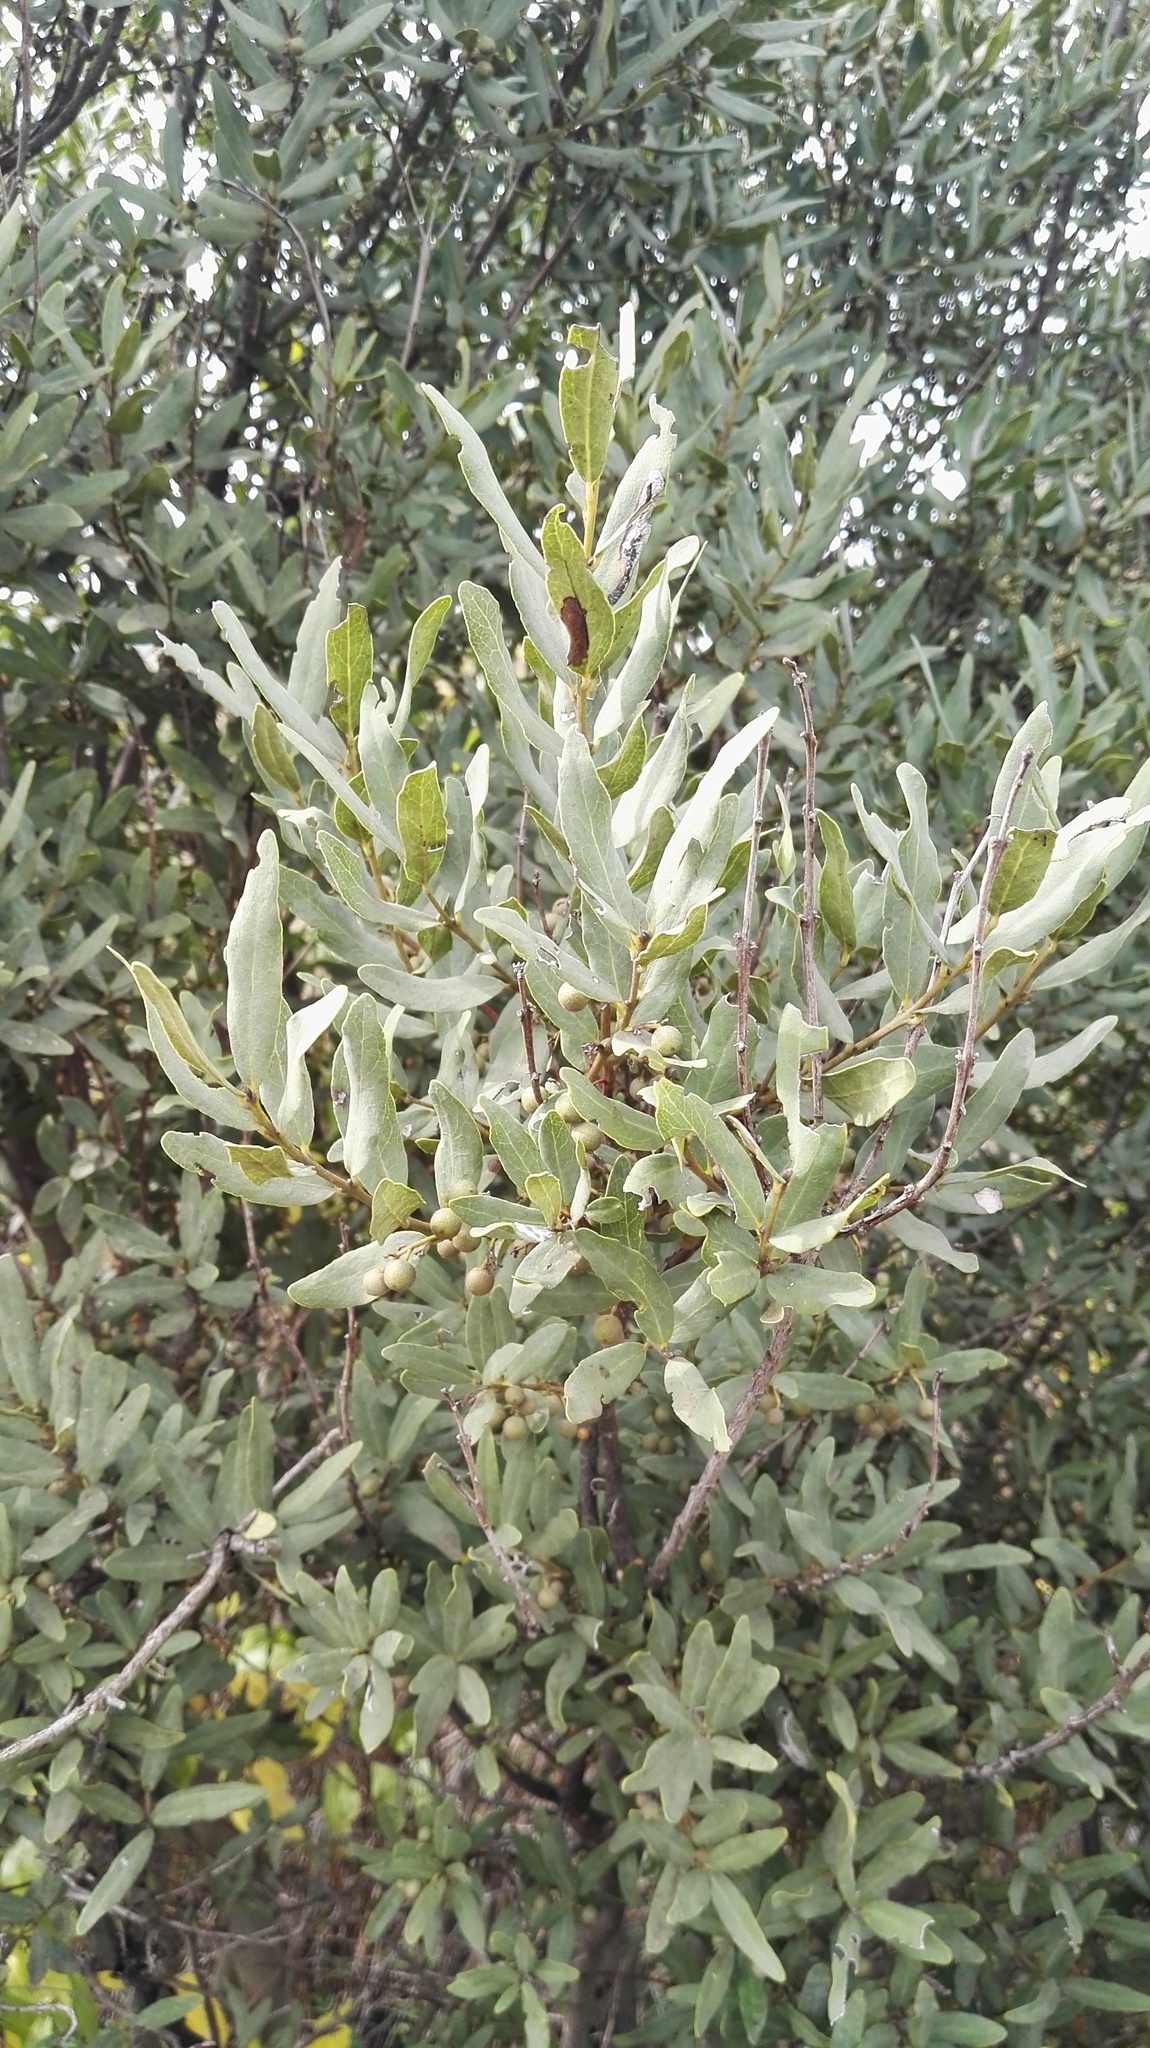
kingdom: Plantae
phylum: Tracheophyta
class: Magnoliopsida
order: Ericales
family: Ebenaceae
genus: Euclea
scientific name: Euclea crispa
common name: Blue guarri
